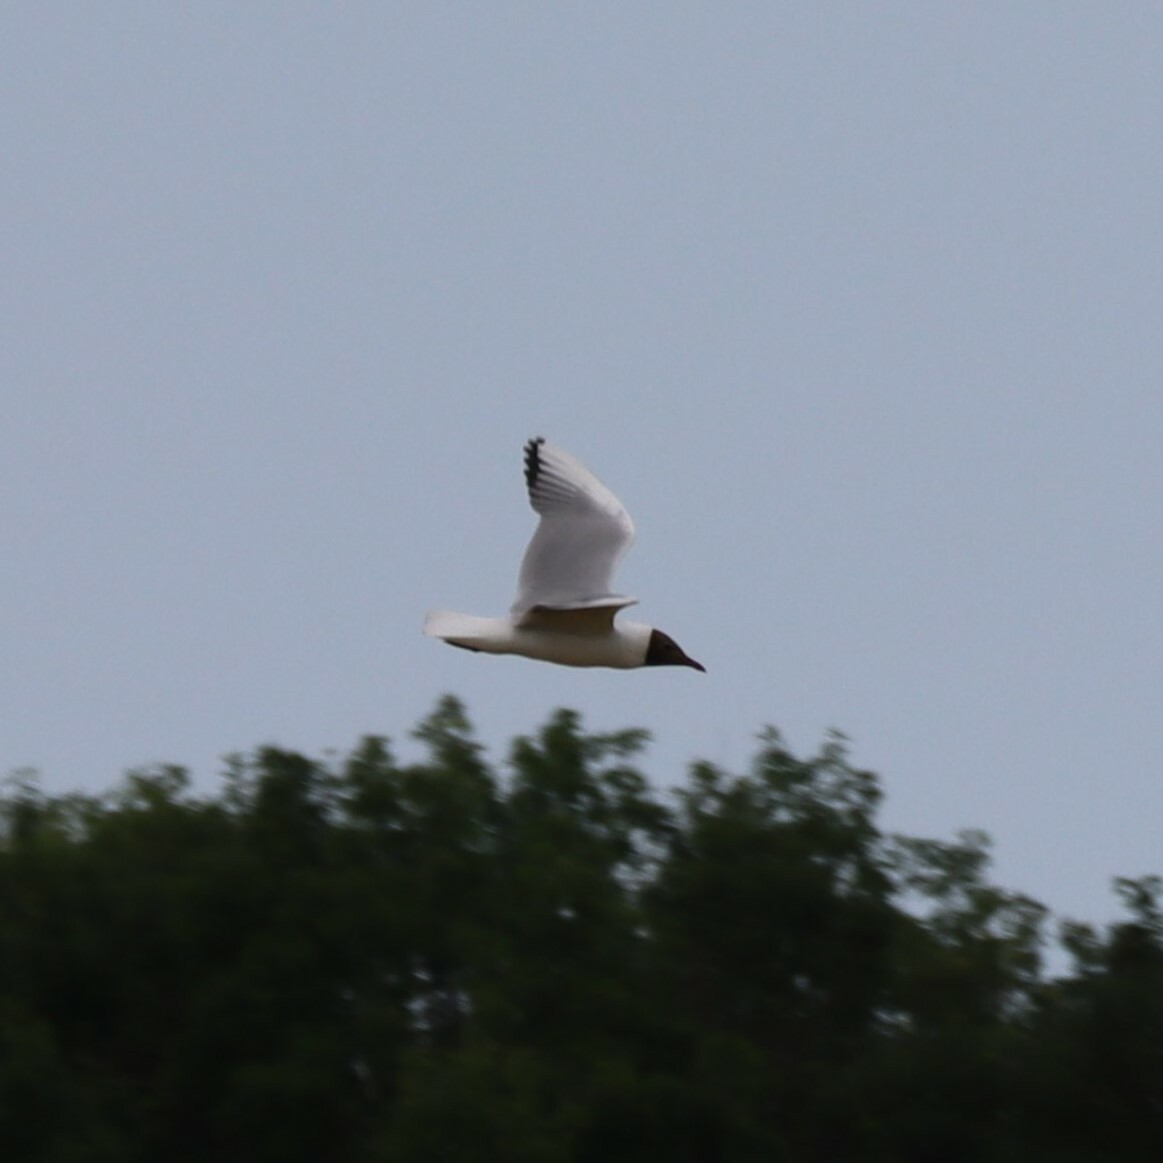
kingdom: Animalia
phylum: Chordata
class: Aves
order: Charadriiformes
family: Laridae
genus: Chroicocephalus
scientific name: Chroicocephalus ridibundus
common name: Black-headed gull
